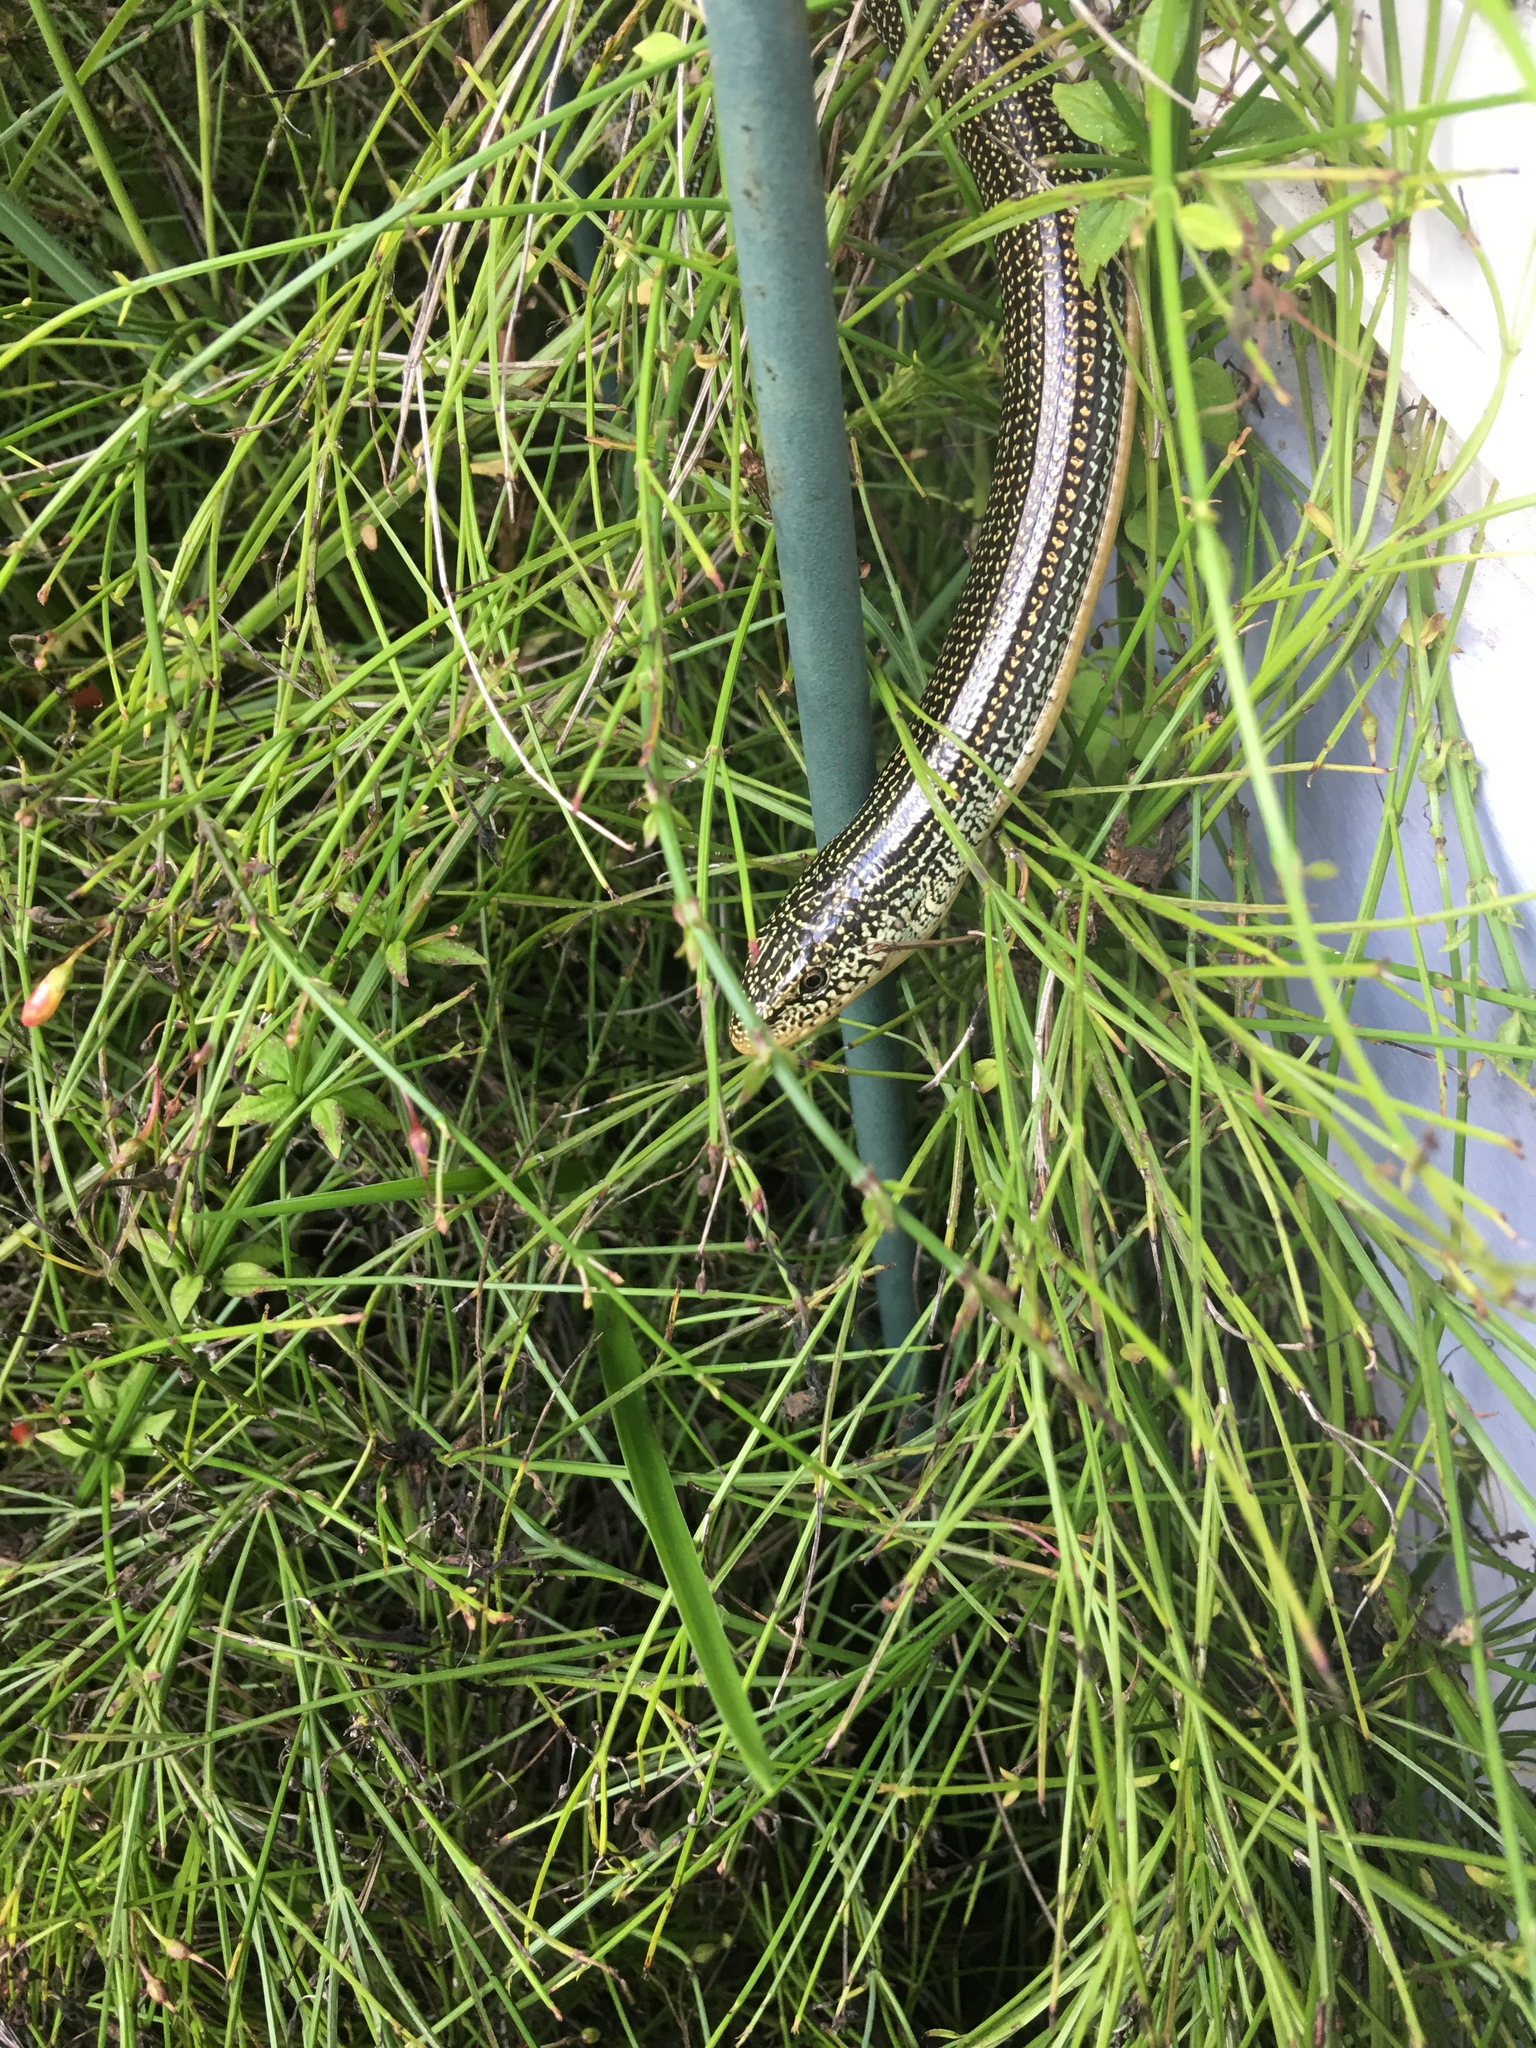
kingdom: Animalia
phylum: Chordata
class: Squamata
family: Anguidae
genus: Ophisaurus
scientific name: Ophisaurus ventralis
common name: Eastern glass lizard
